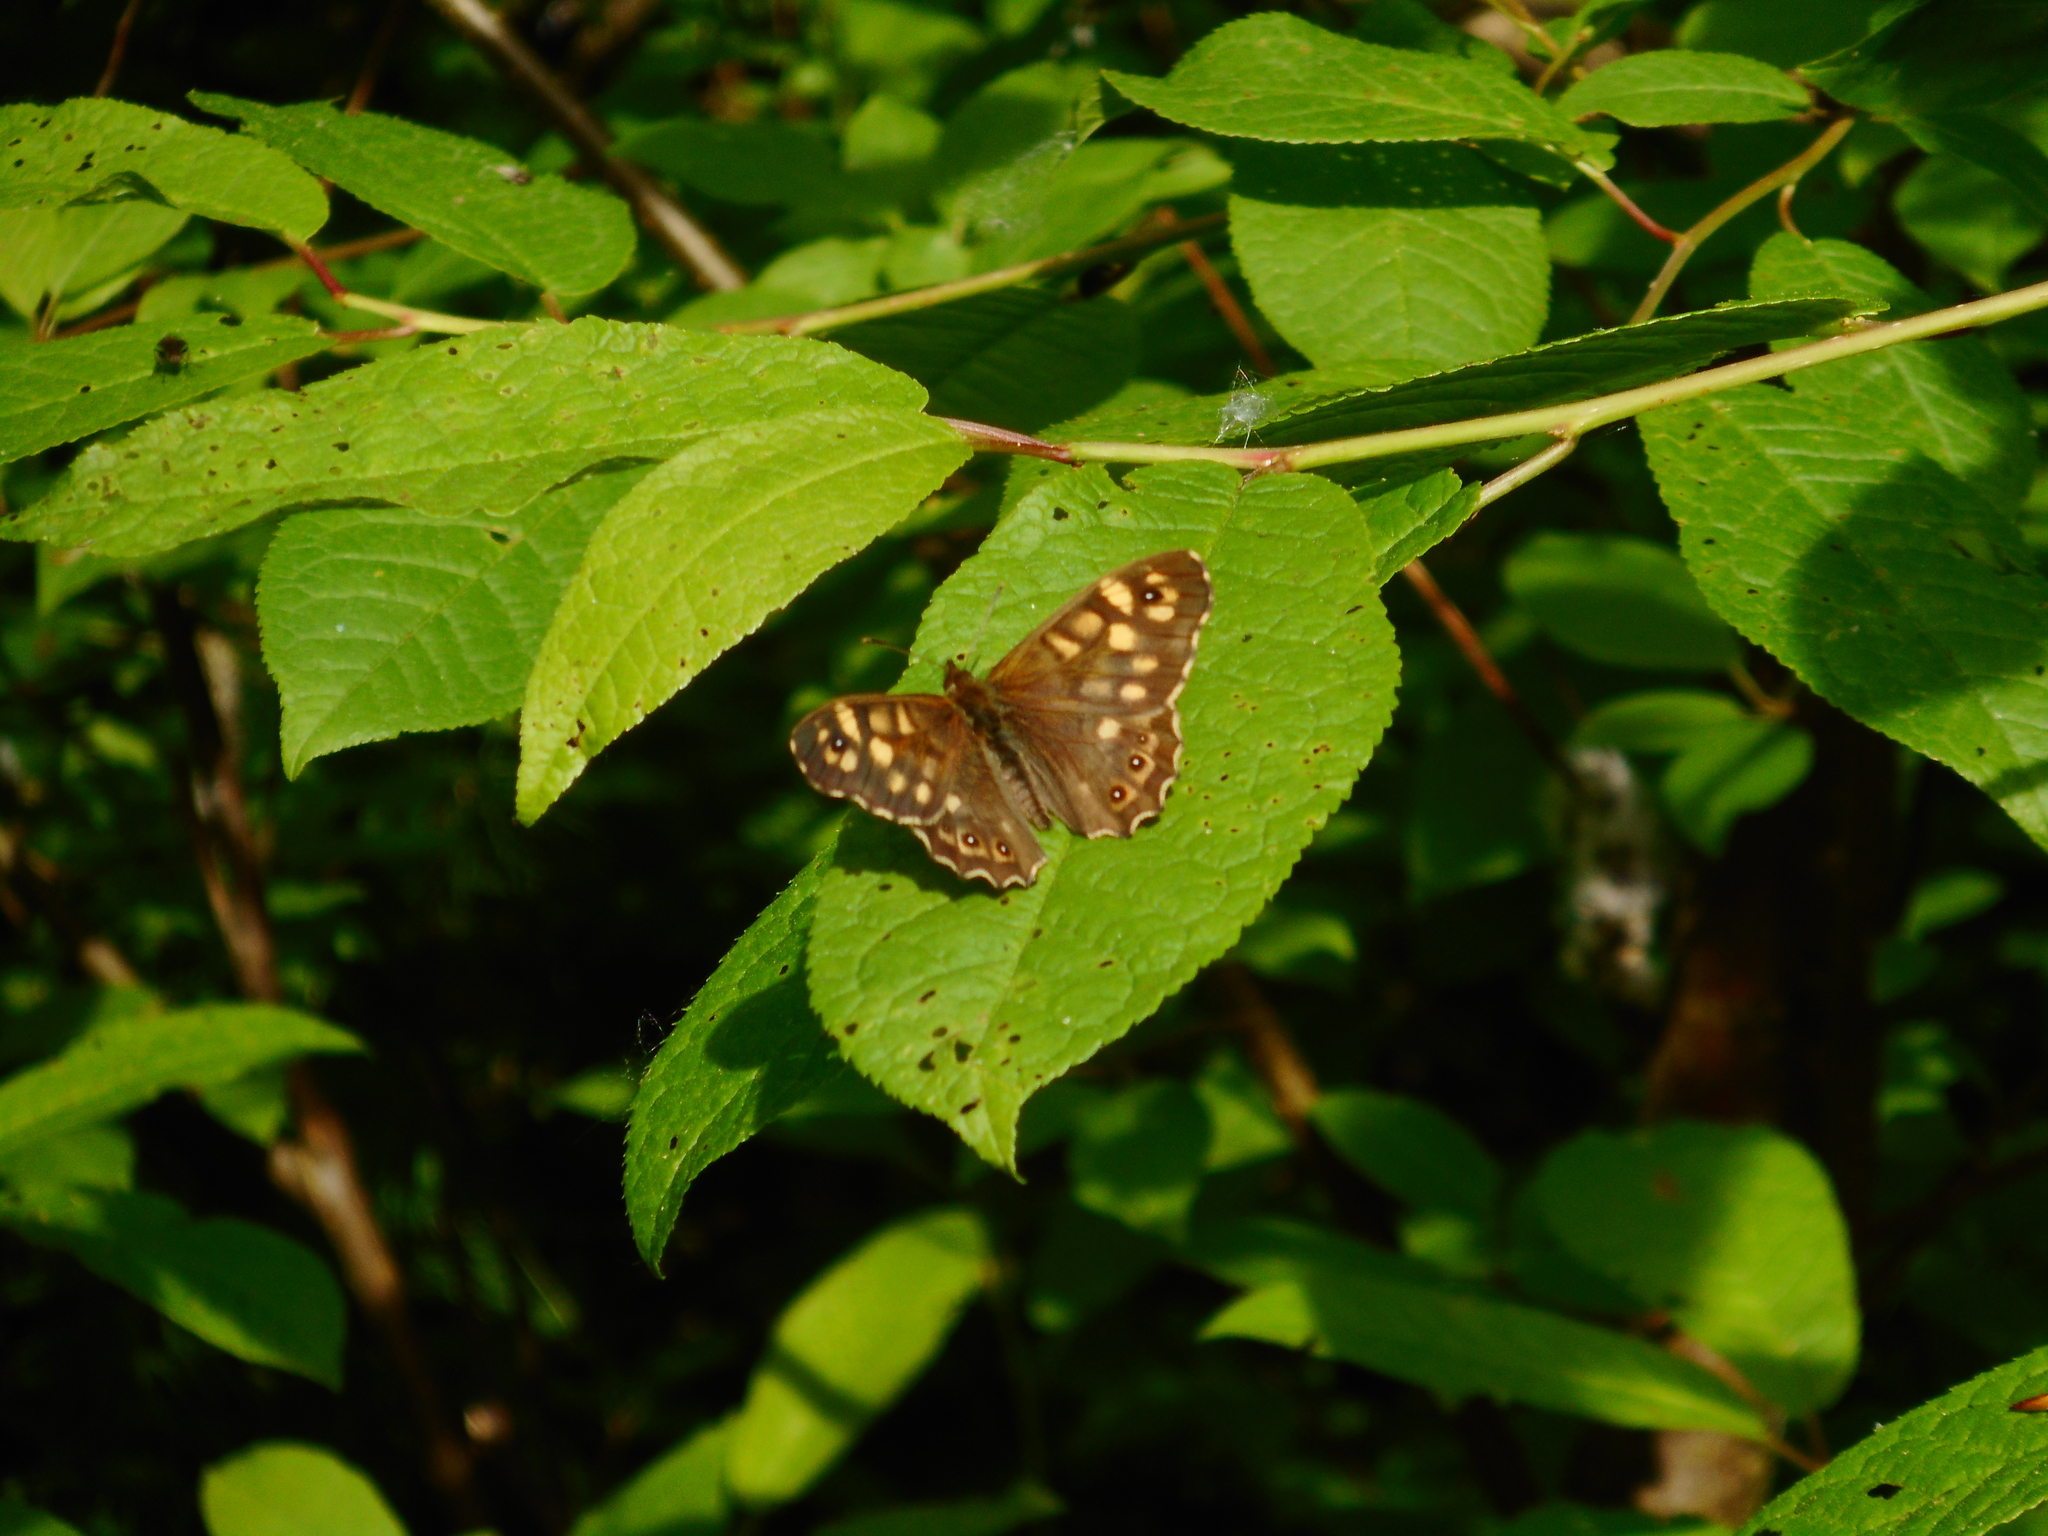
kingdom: Animalia
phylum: Arthropoda
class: Insecta
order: Lepidoptera
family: Nymphalidae
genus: Pararge
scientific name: Pararge aegeria
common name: Speckled wood
